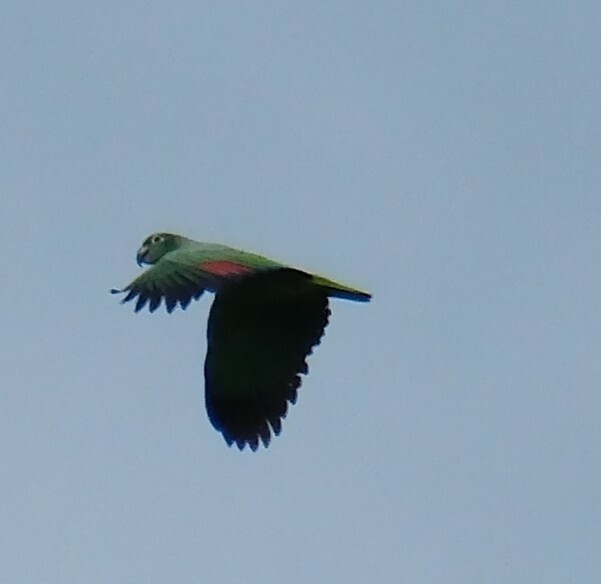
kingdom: Animalia
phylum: Chordata
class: Aves
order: Psittaciformes
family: Psittacidae
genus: Amazona
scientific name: Amazona farinosa
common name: Mealy parrot
